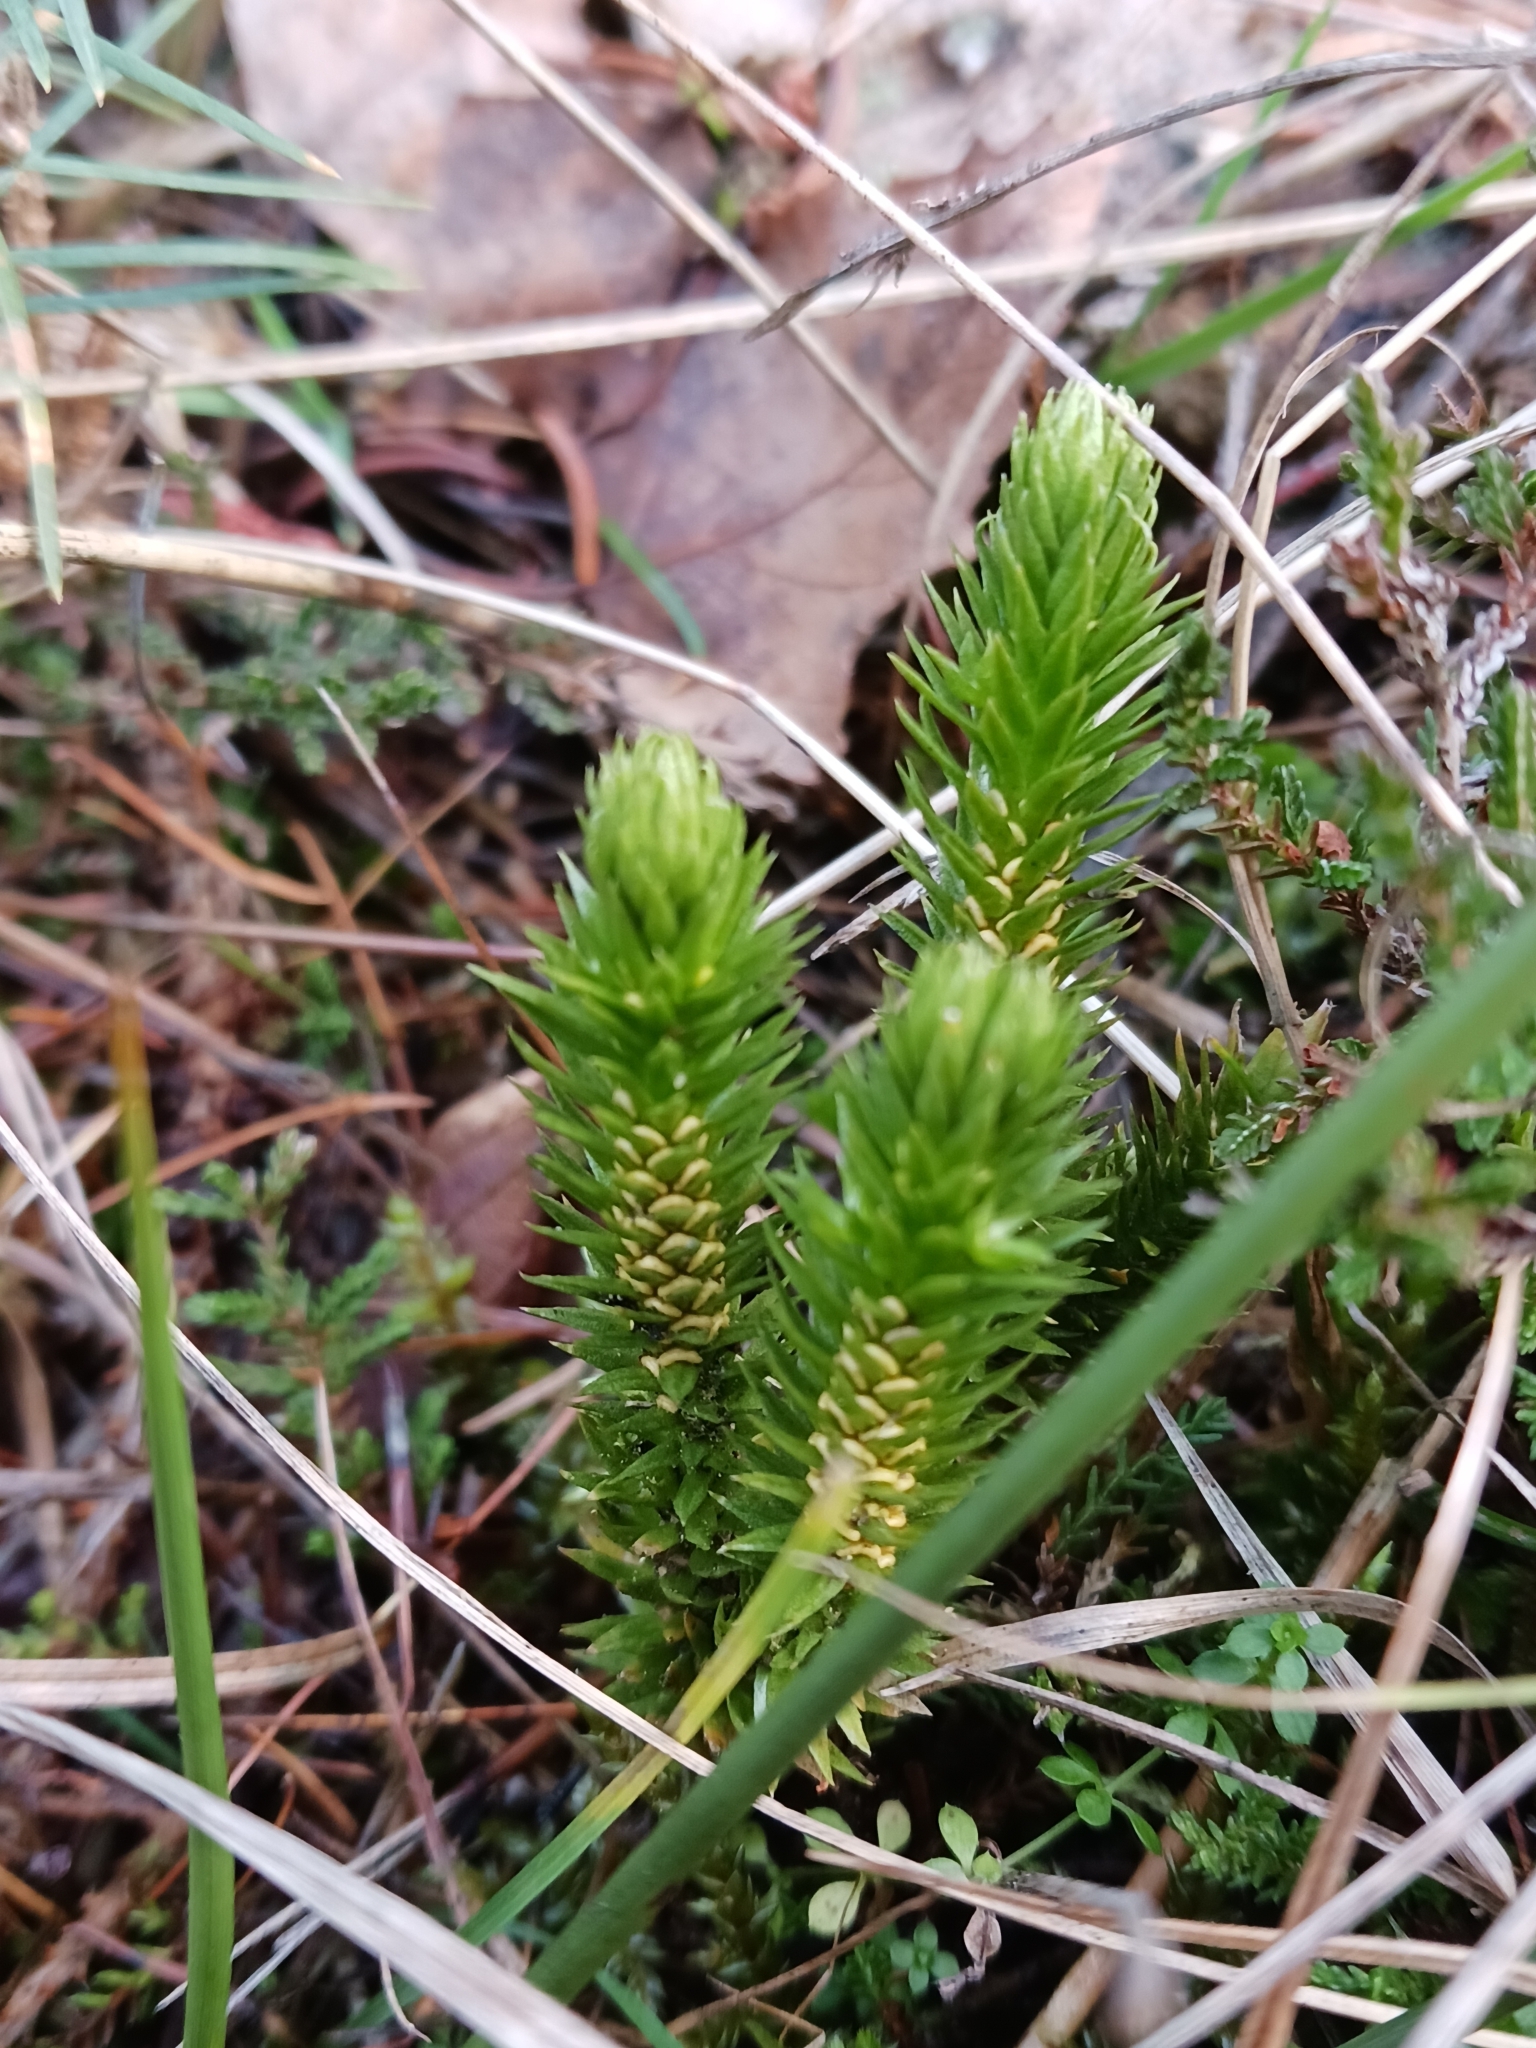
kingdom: Plantae
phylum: Tracheophyta
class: Lycopodiopsida
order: Lycopodiales
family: Lycopodiaceae
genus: Huperzia
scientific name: Huperzia selago
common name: Northern firmoss
